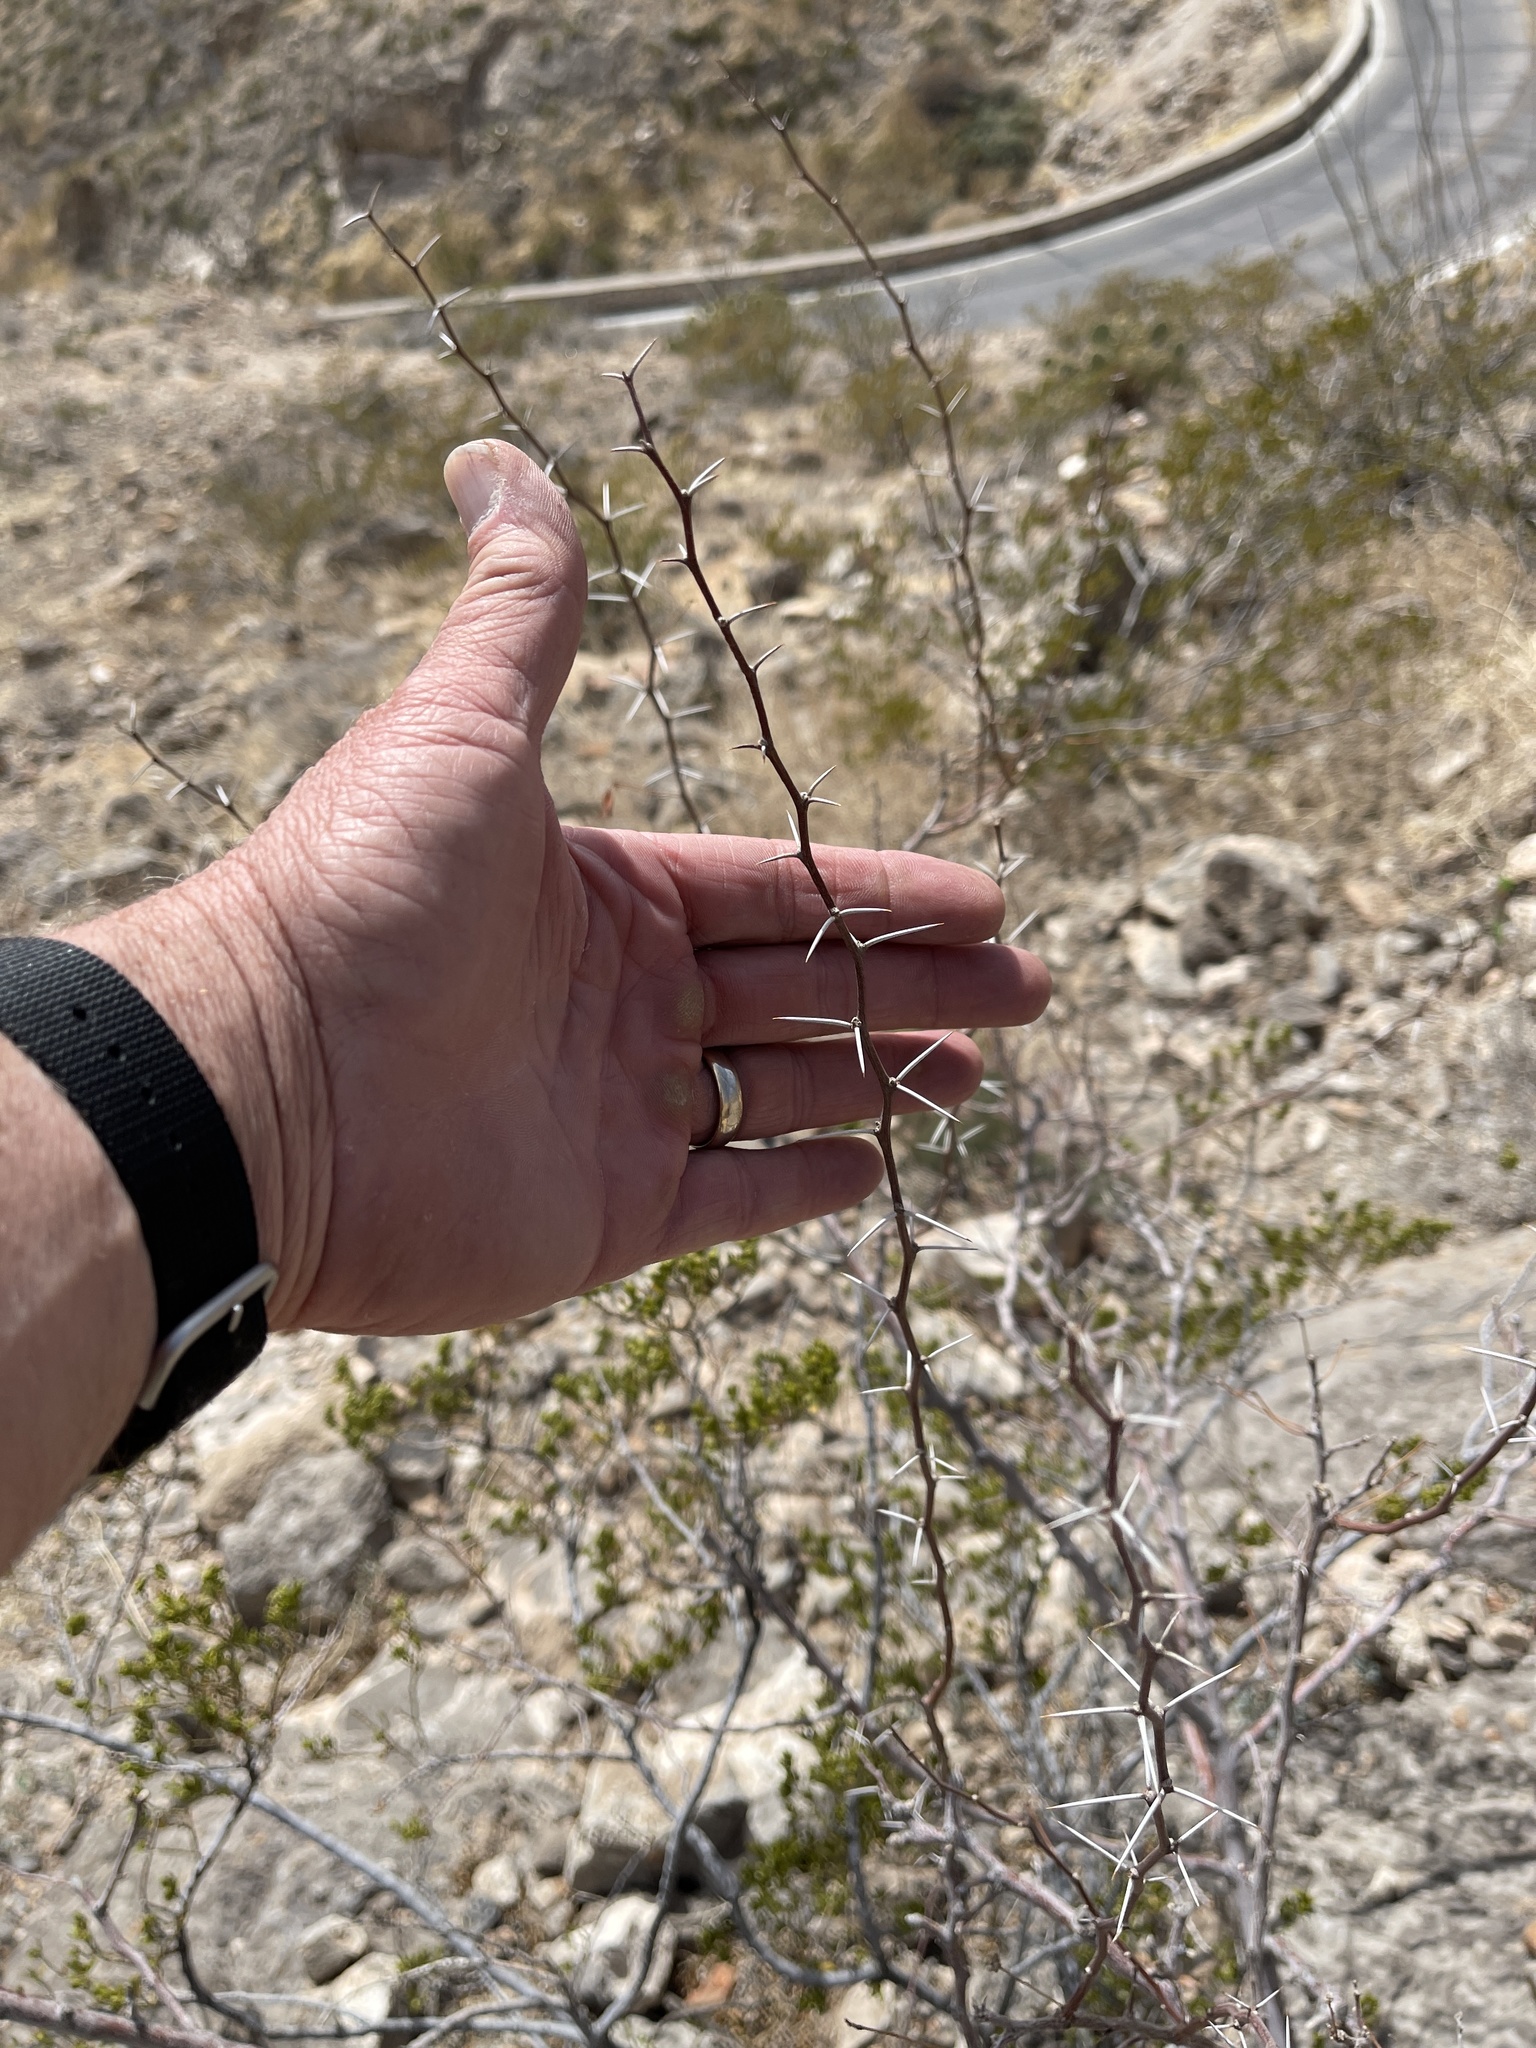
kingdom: Plantae
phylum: Tracheophyta
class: Magnoliopsida
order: Fabales
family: Fabaceae
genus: Vachellia
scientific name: Vachellia constricta
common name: Mescat acacia
